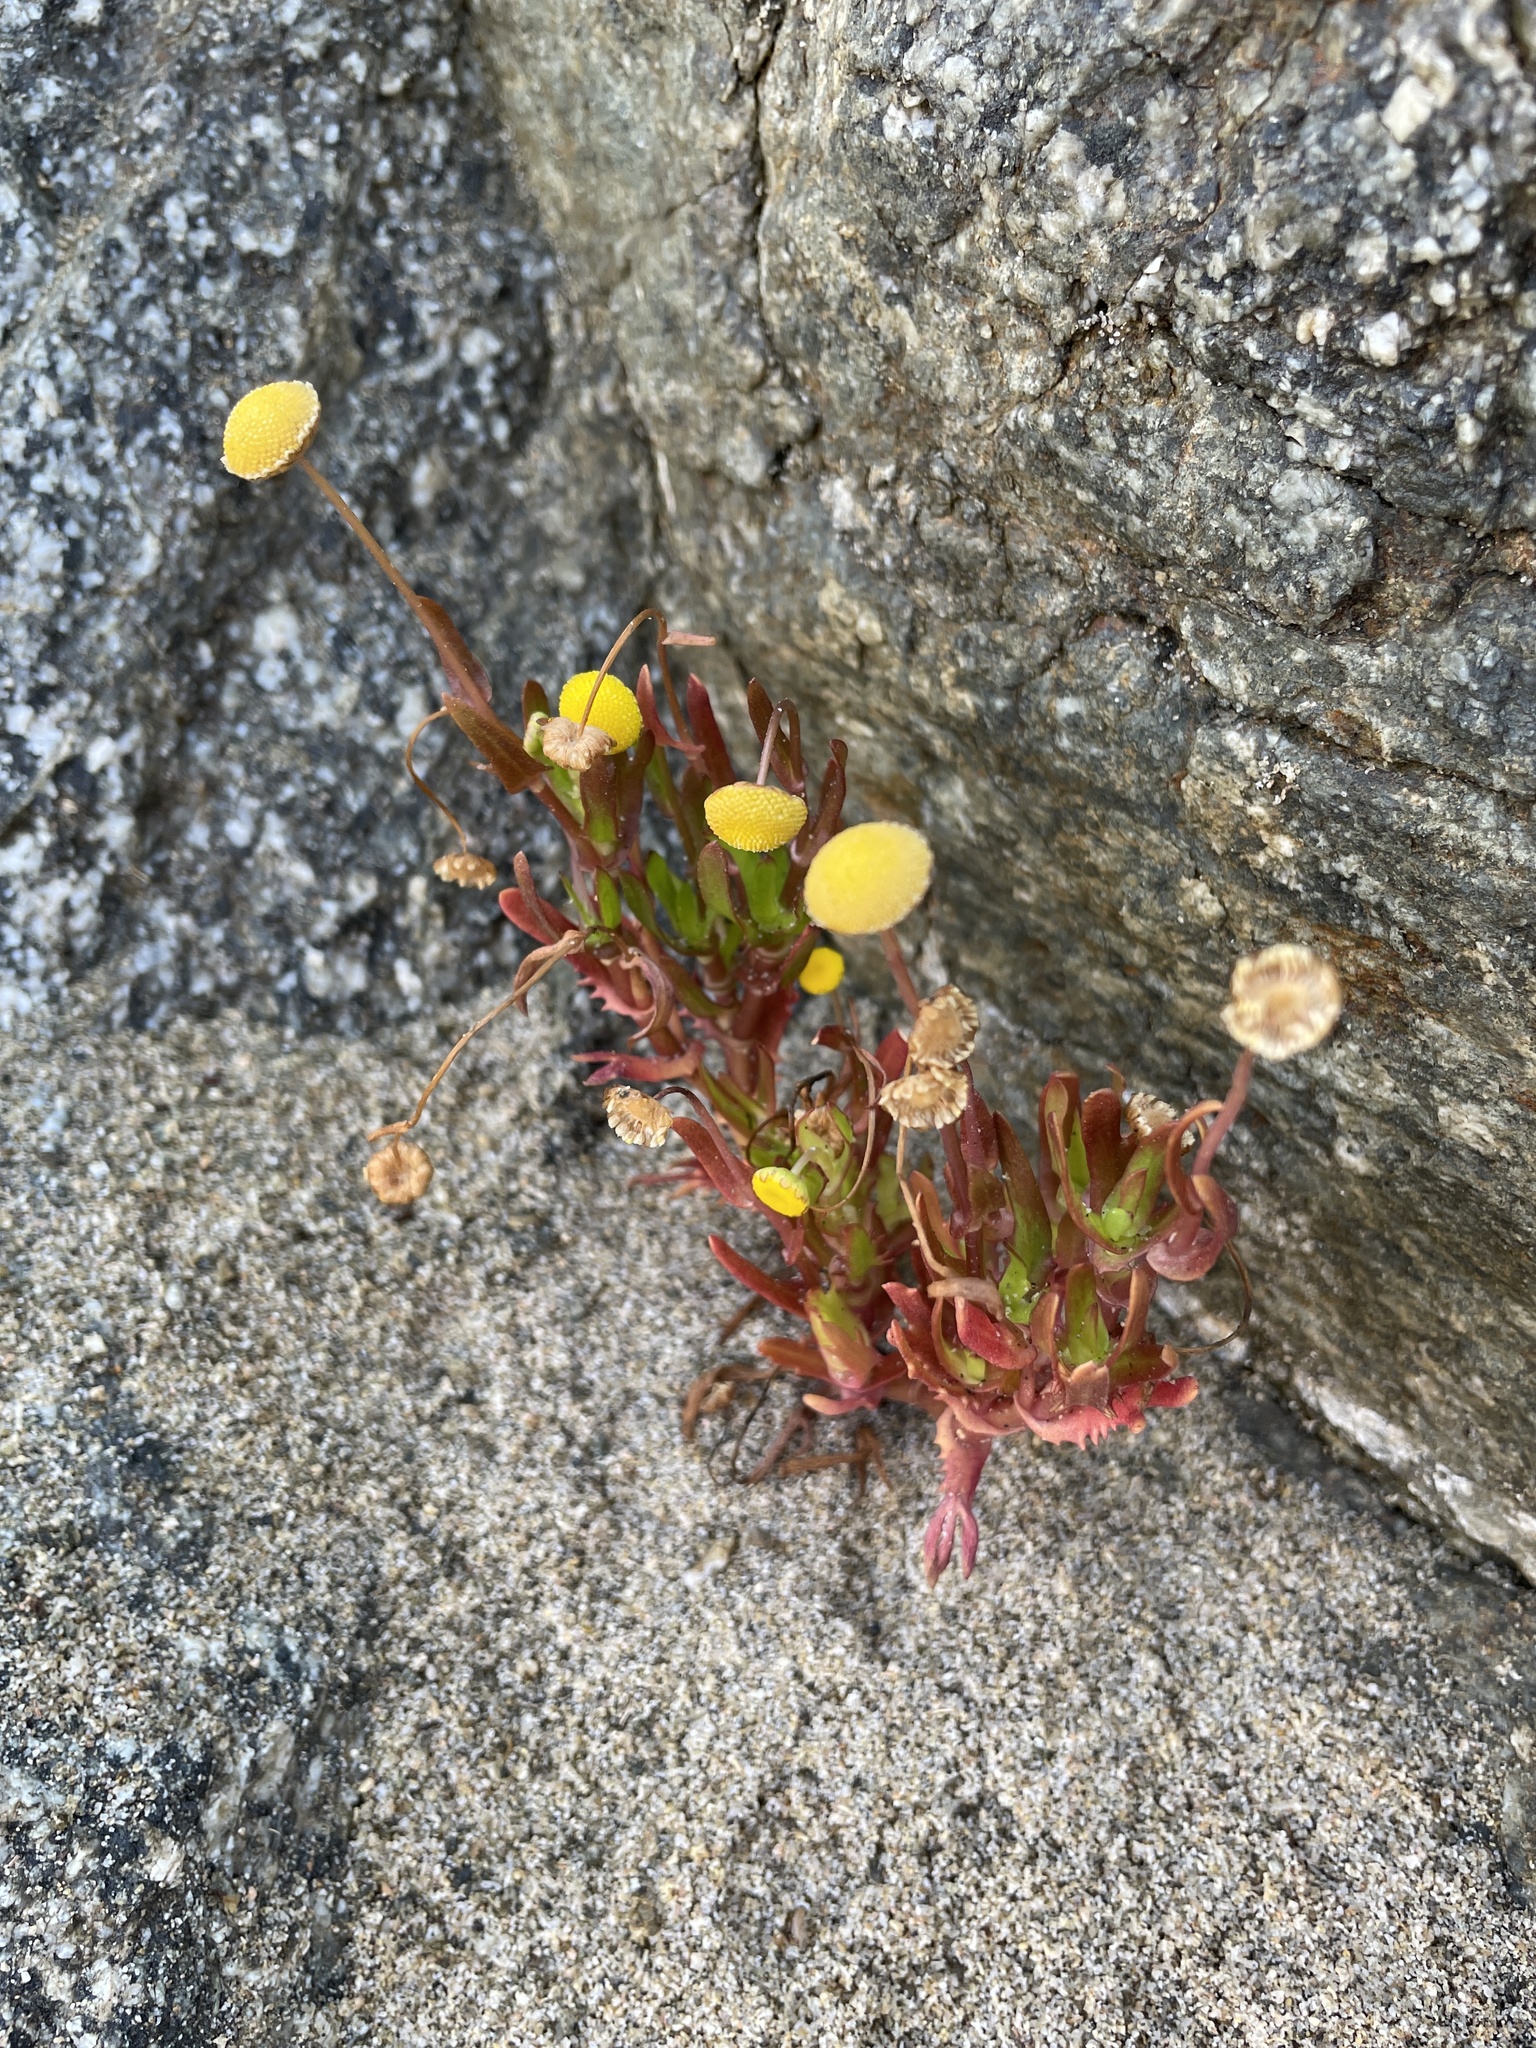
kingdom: Plantae
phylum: Tracheophyta
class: Magnoliopsida
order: Asterales
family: Asteraceae
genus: Cotula
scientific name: Cotula coronopifolia
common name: Buttonweed
